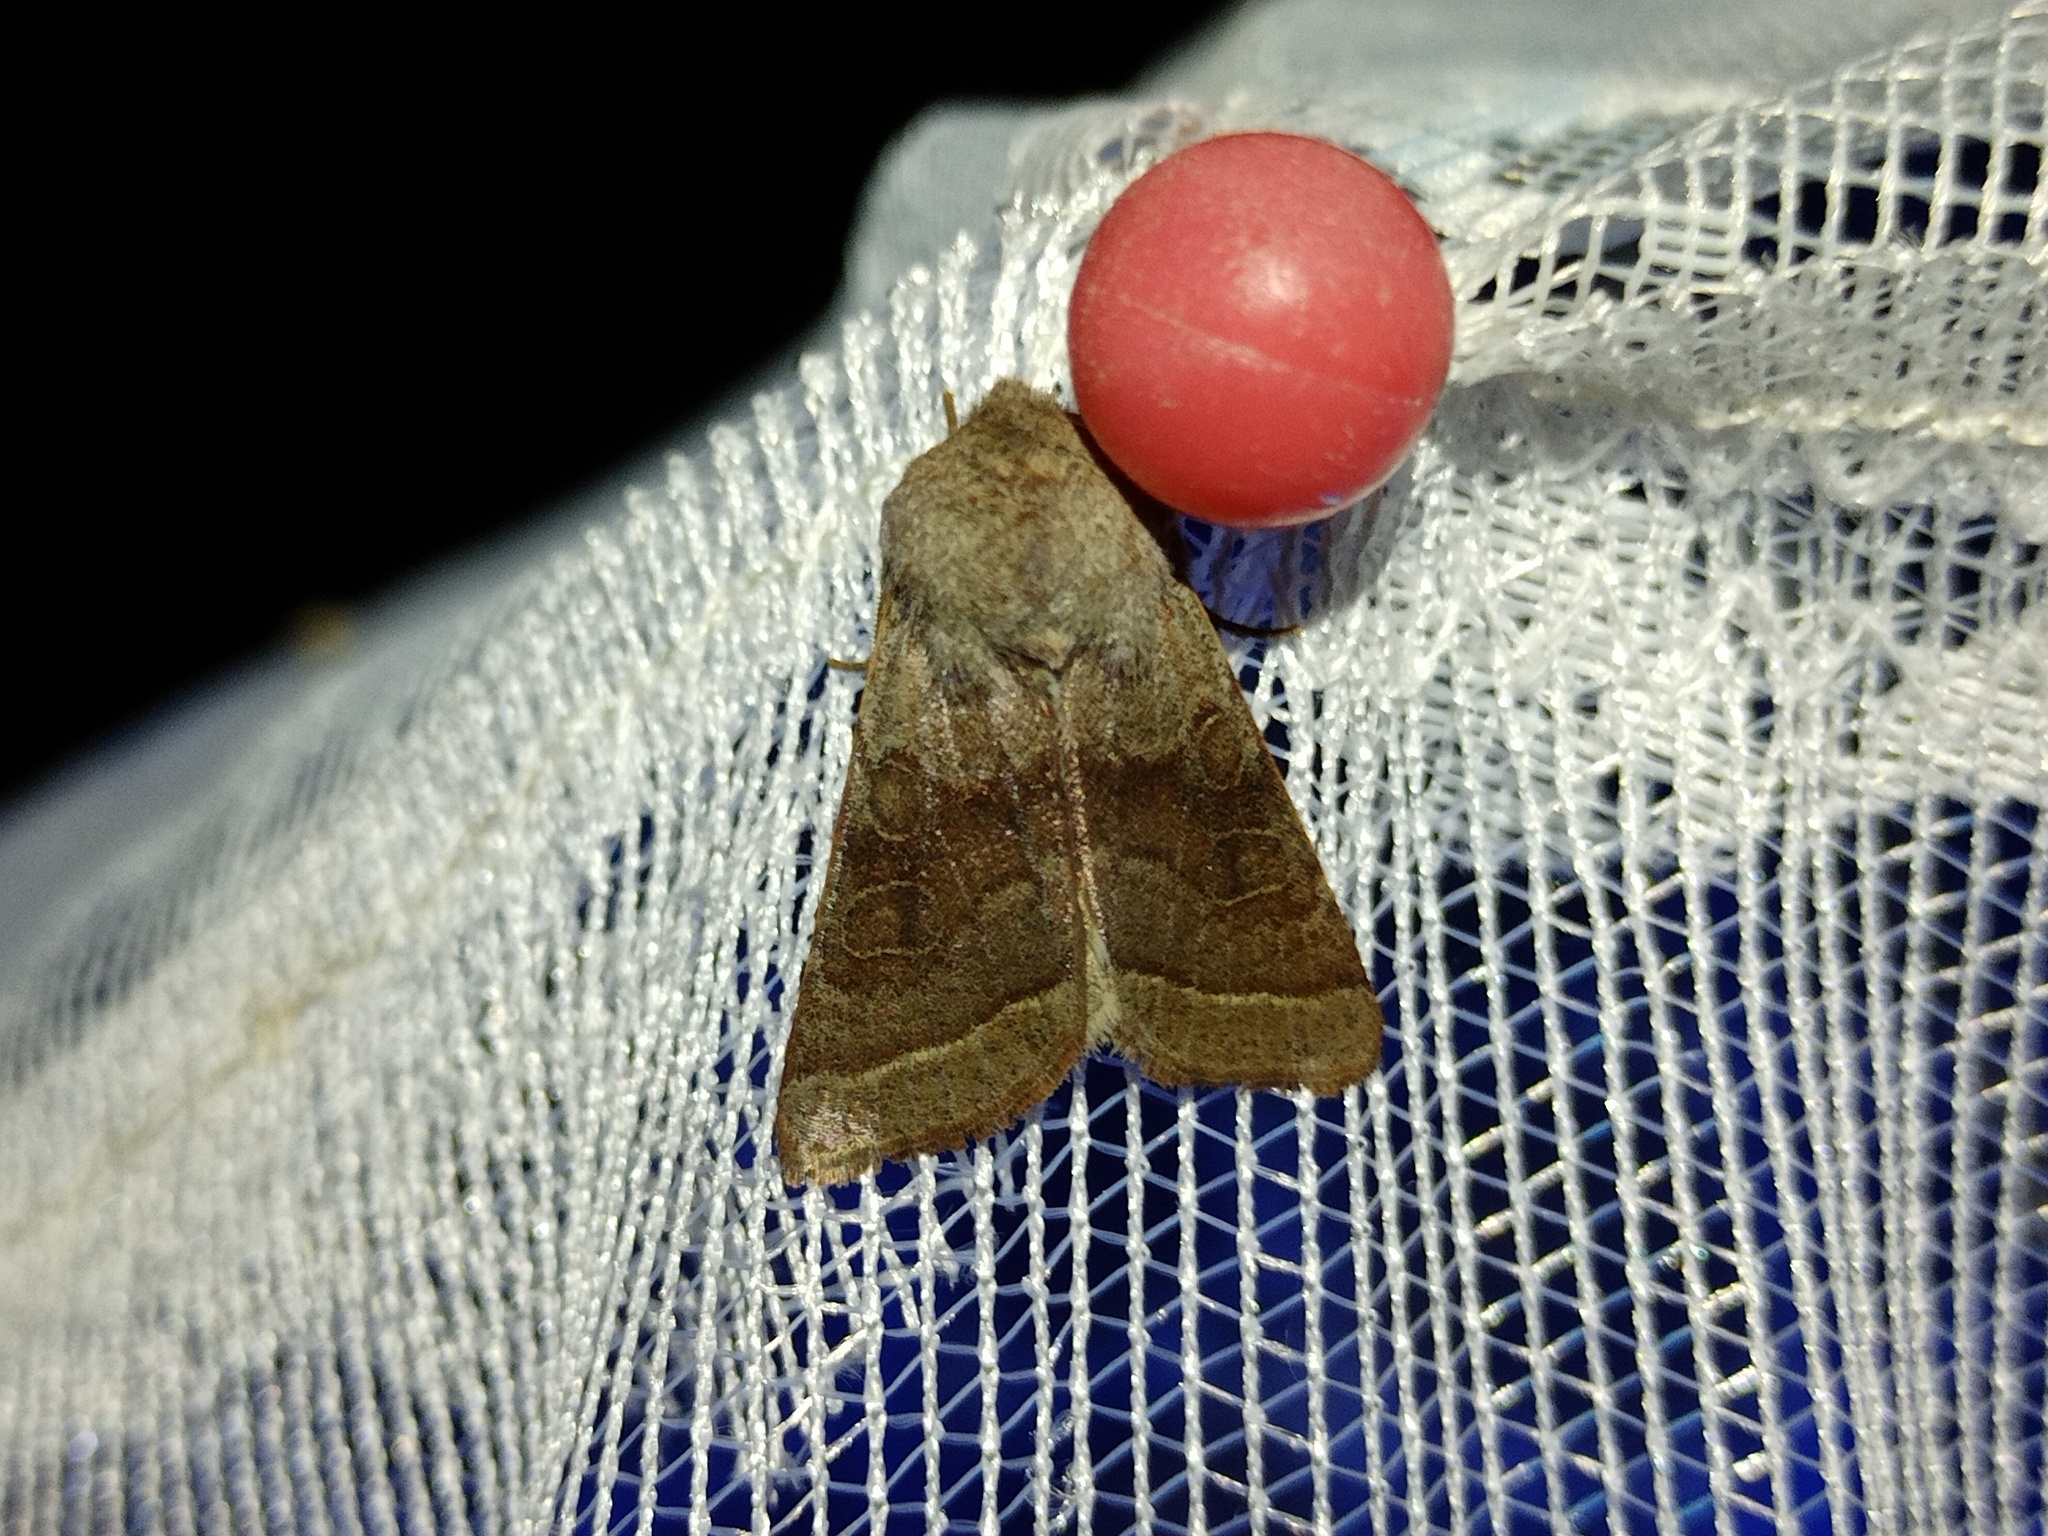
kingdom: Animalia
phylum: Arthropoda
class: Insecta
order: Lepidoptera
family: Noctuidae
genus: Orthosia
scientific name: Orthosia opima
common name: Northern drab
